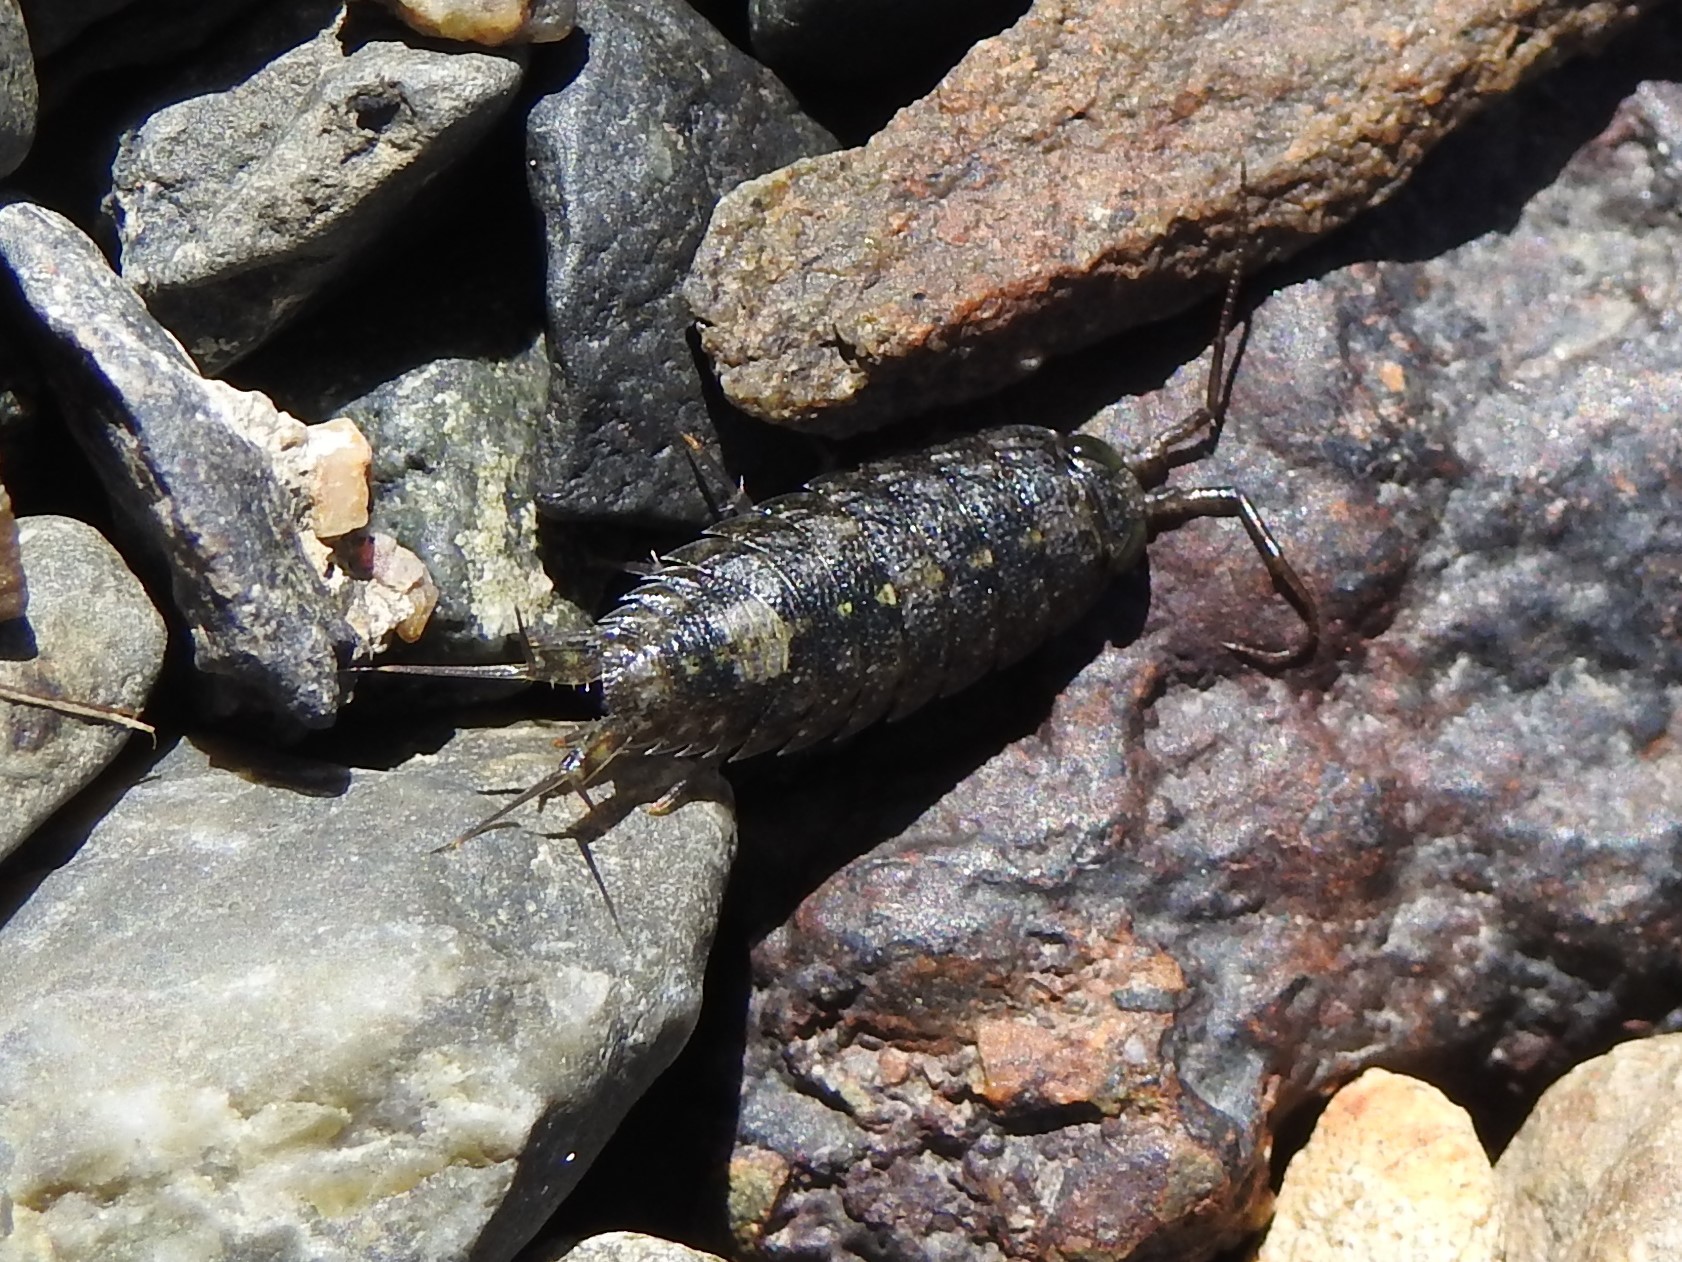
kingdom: Animalia
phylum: Arthropoda
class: Malacostraca
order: Isopoda
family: Ligiidae
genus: Ligia
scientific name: Ligia occidentalis
